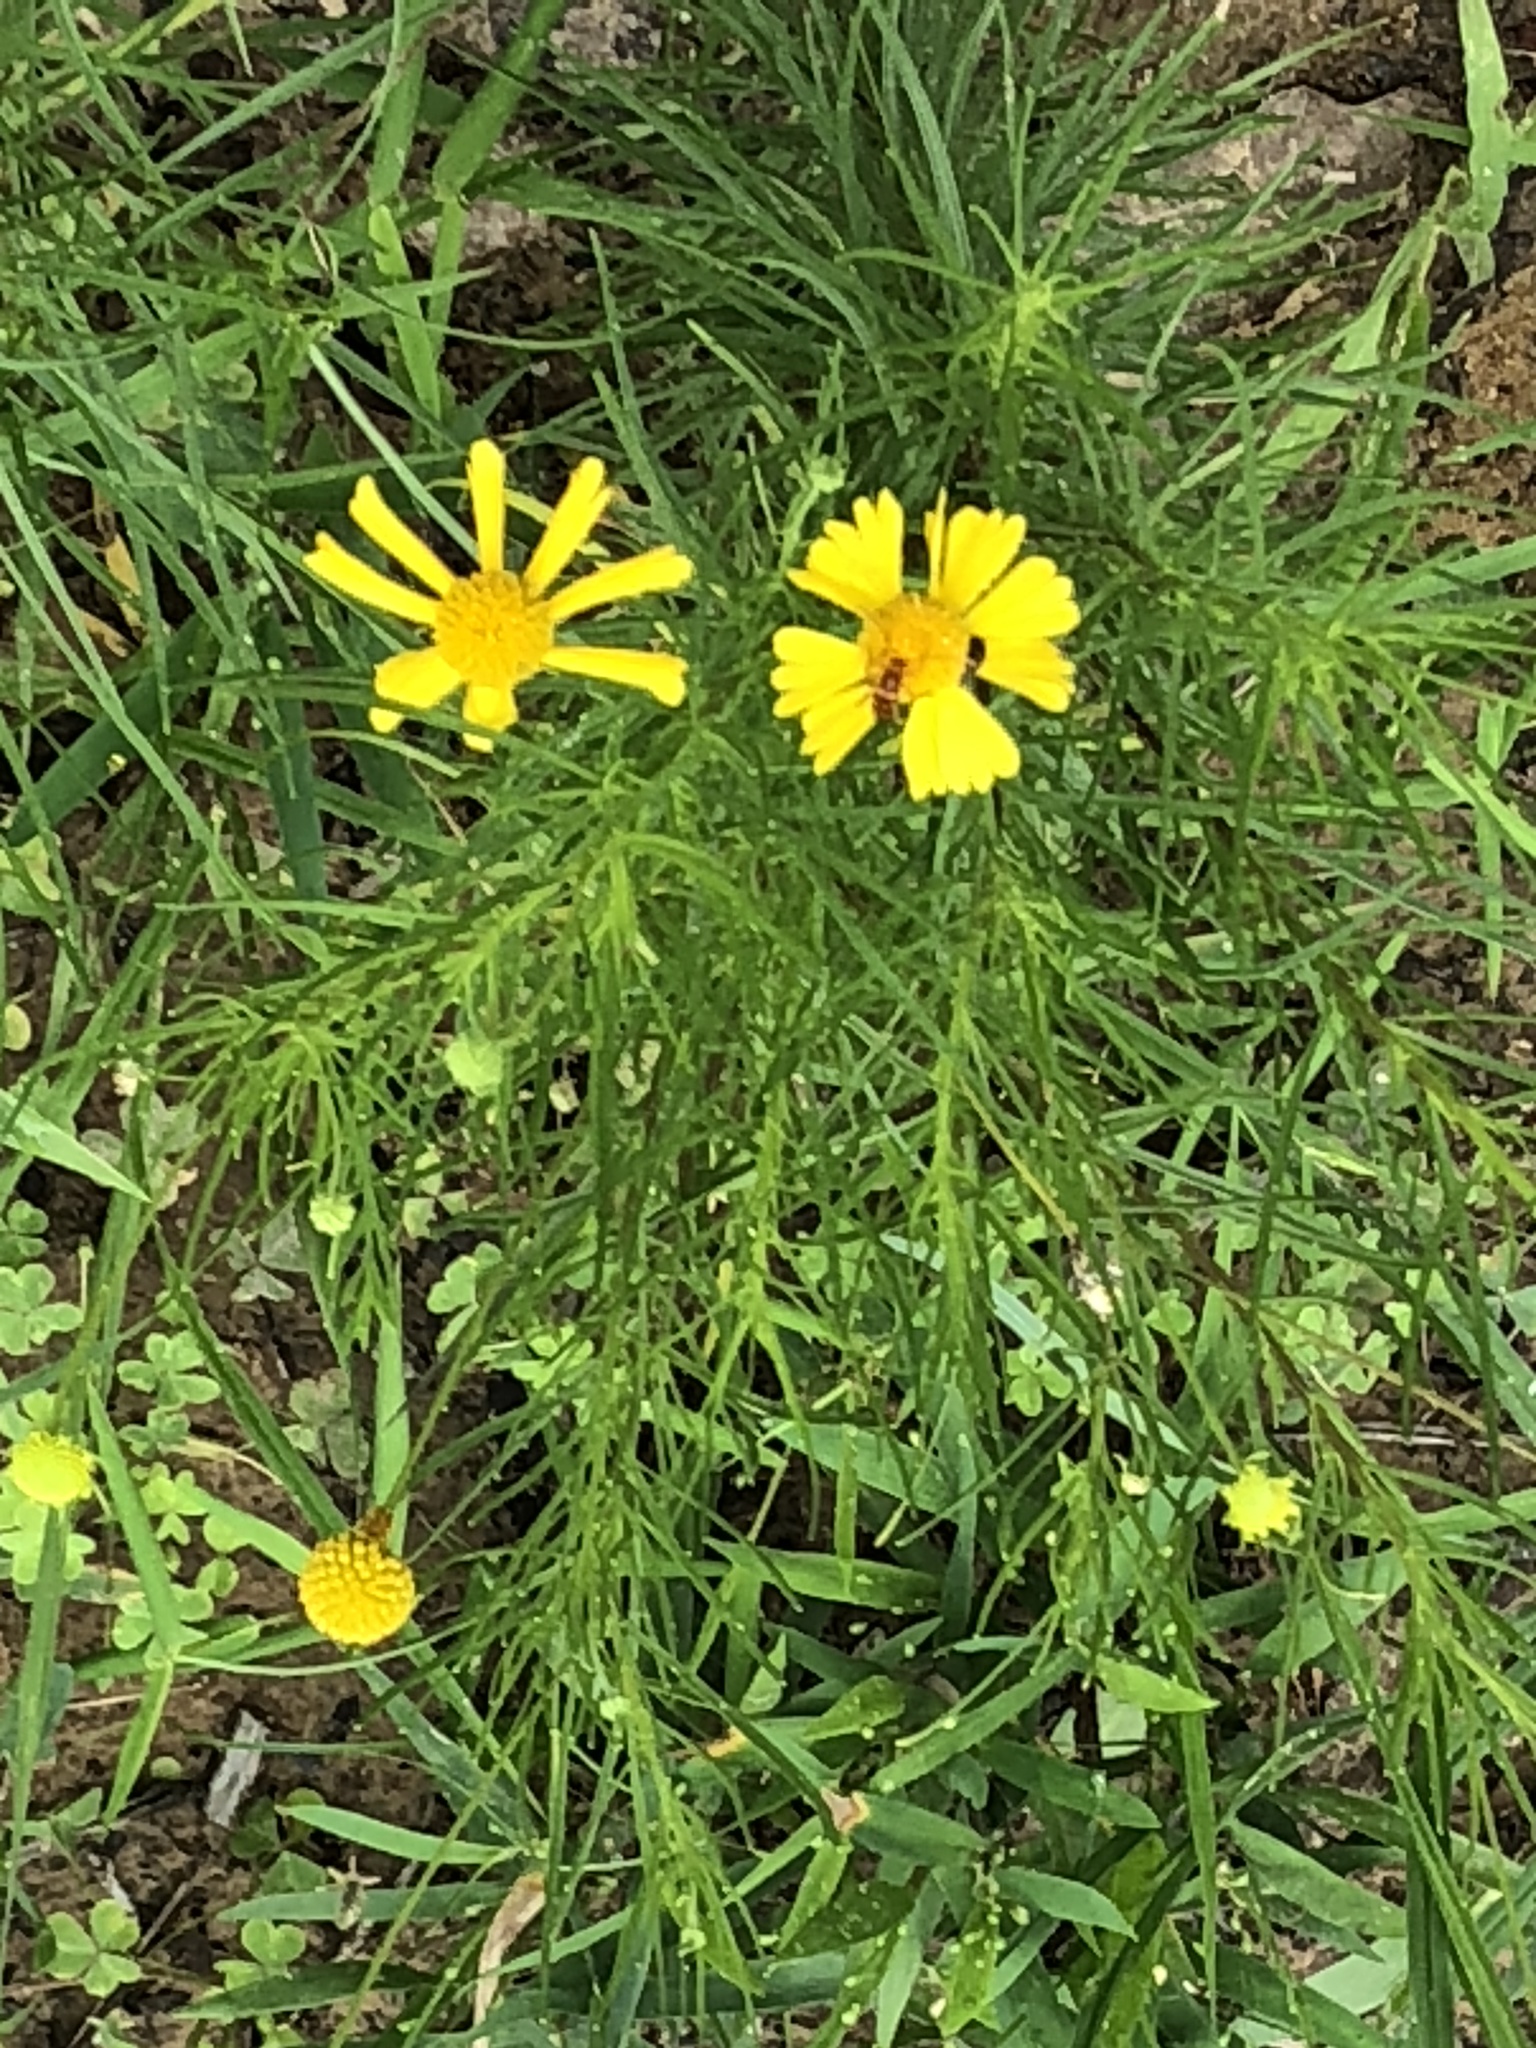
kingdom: Plantae
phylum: Tracheophyta
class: Magnoliopsida
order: Asterales
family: Asteraceae
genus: Helenium
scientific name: Helenium amarum
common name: Bitter sneezeweed
